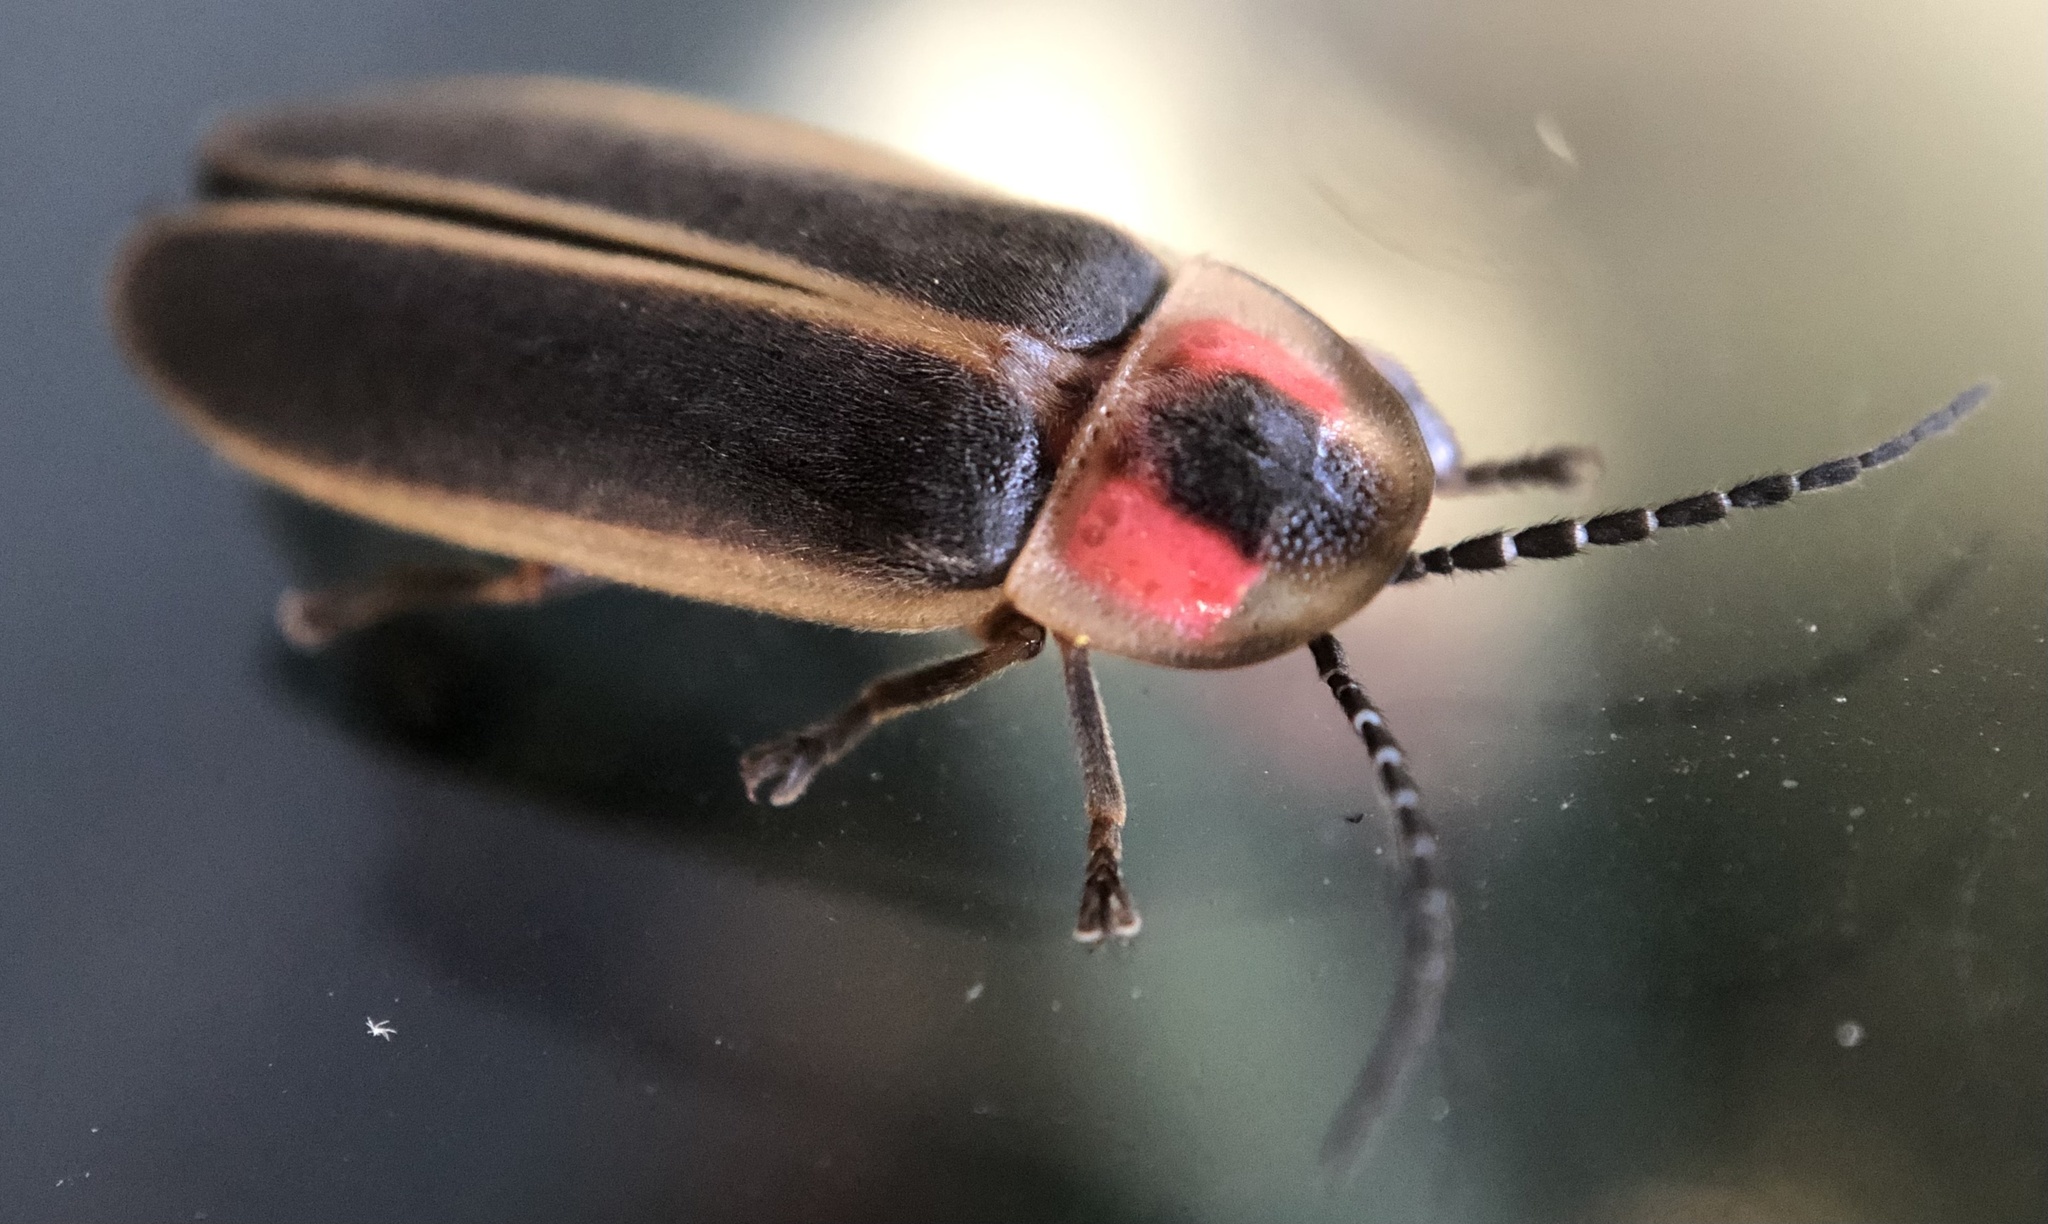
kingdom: Animalia
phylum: Arthropoda
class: Insecta
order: Coleoptera
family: Lampyridae
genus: Photinus
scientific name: Photinus pyralis
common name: Big dipper firefly
